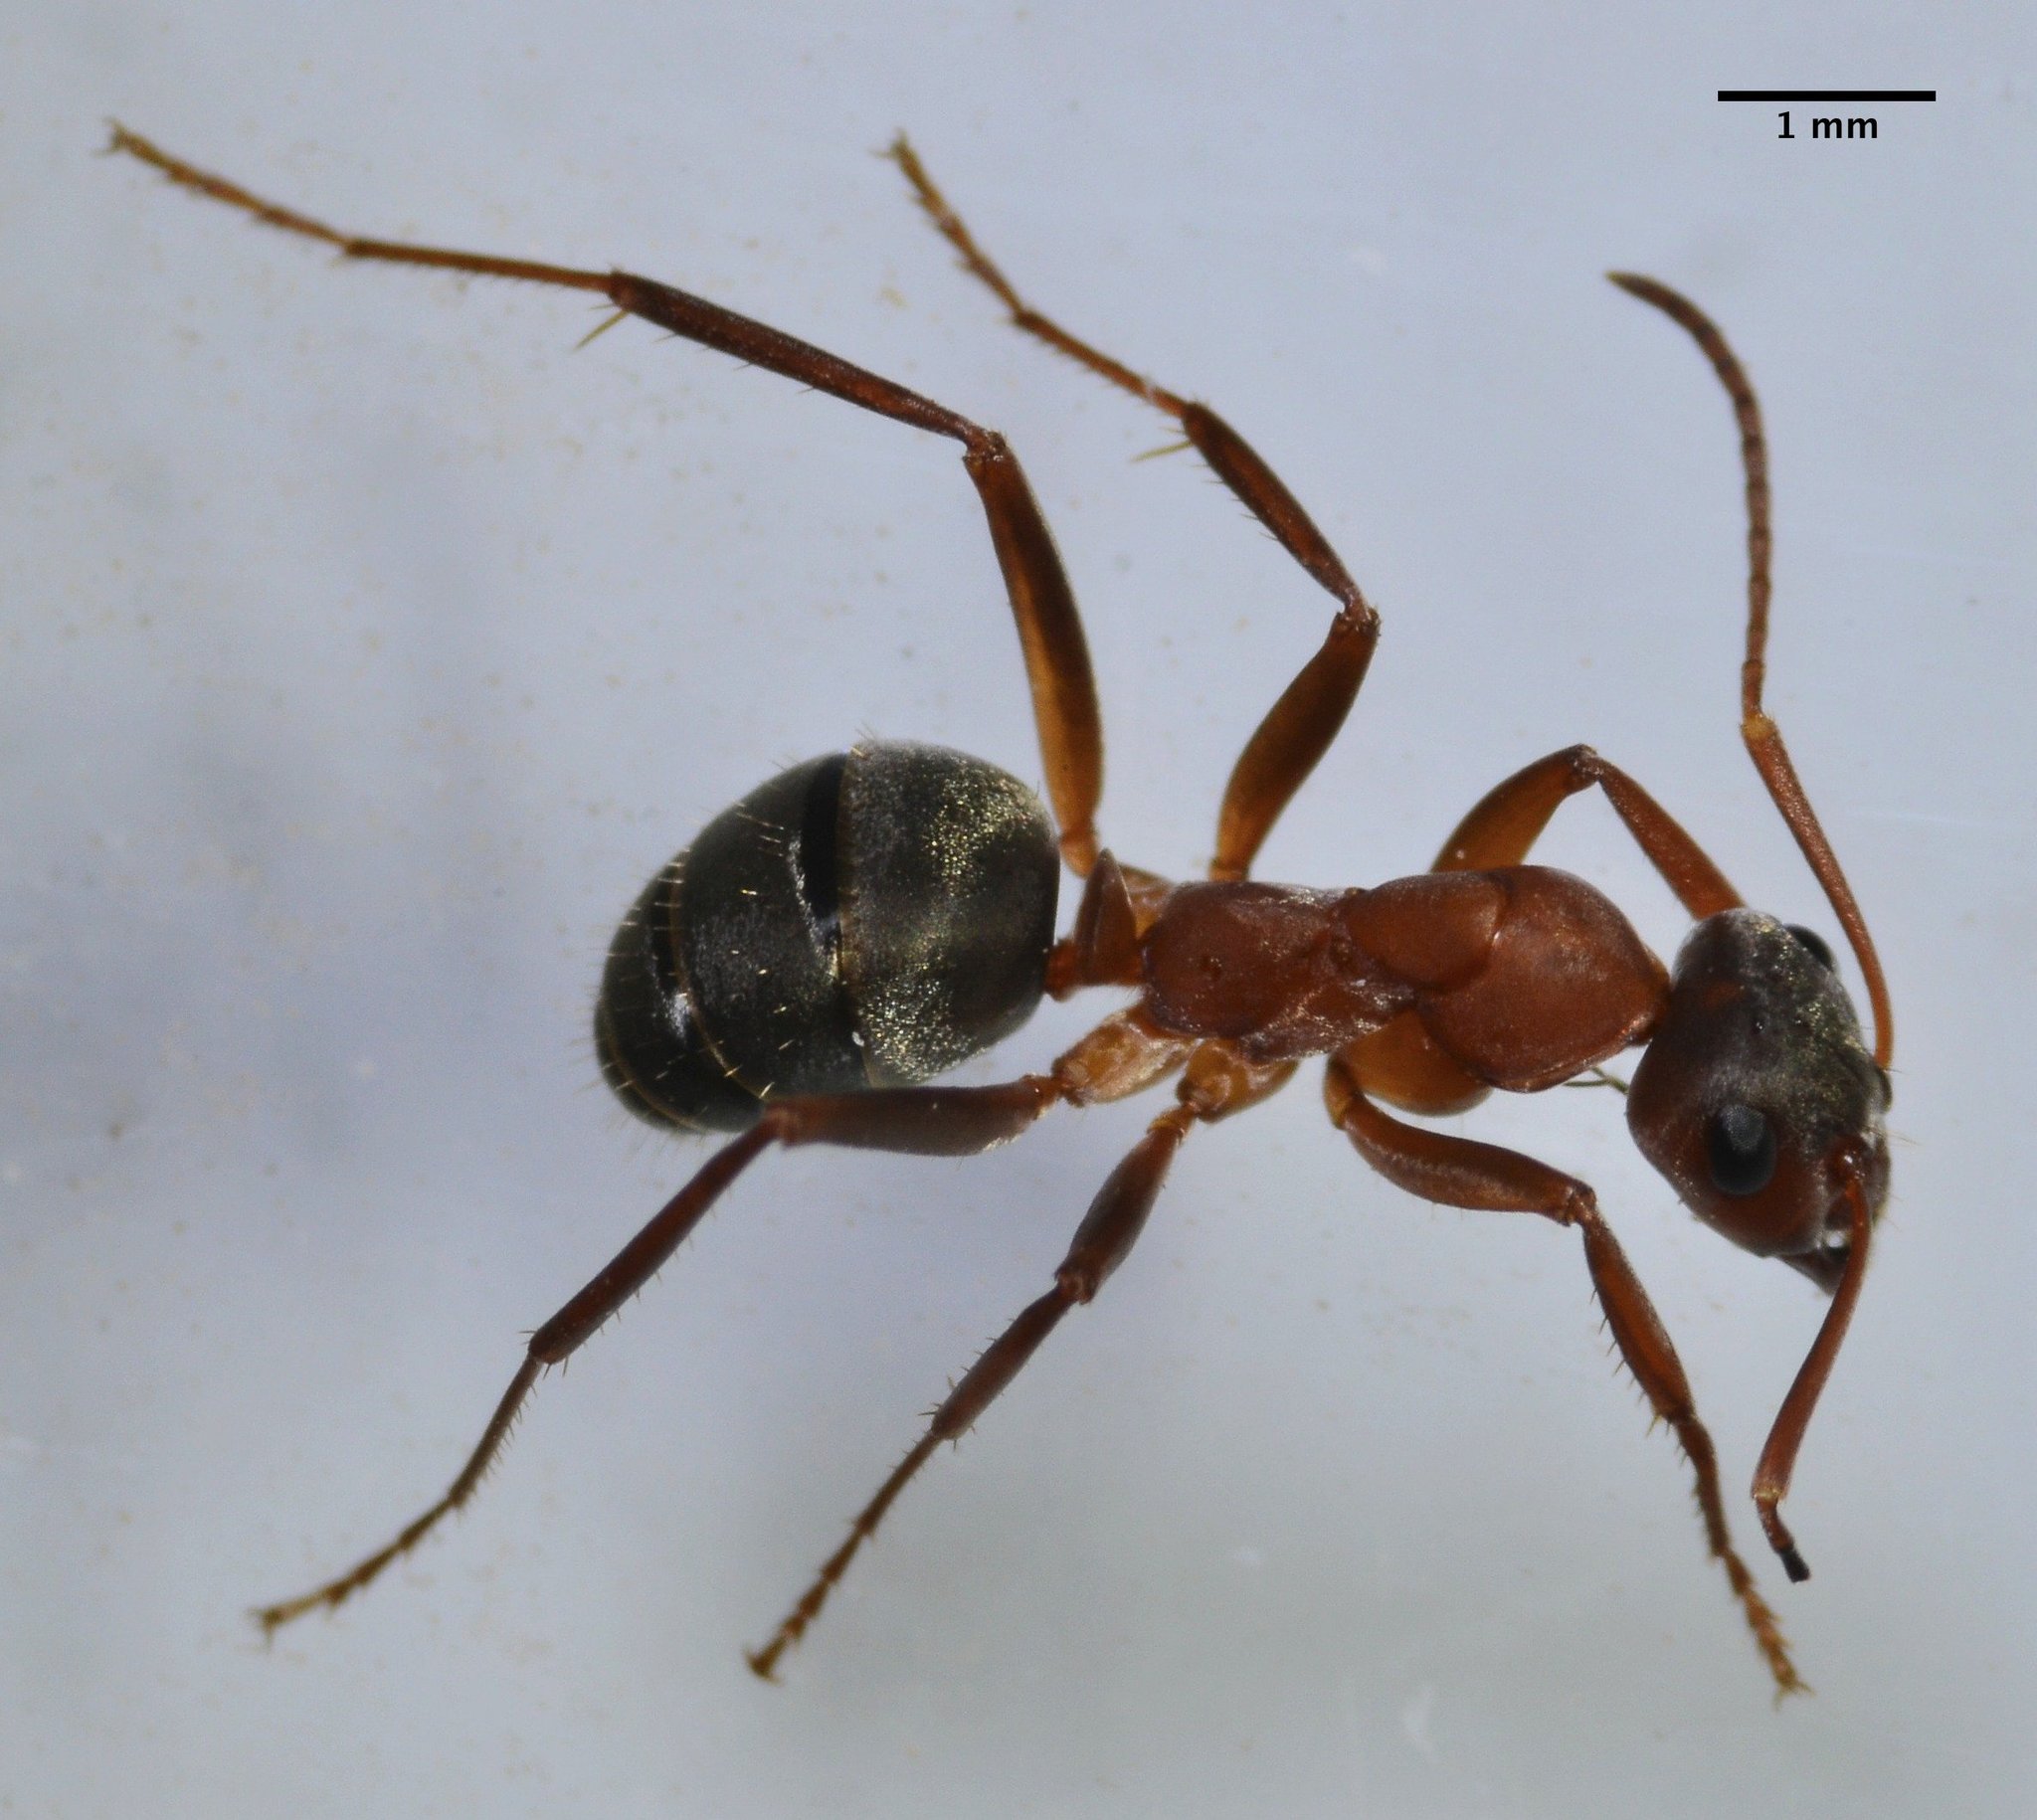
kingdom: Animalia
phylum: Arthropoda
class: Insecta
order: Hymenoptera
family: Formicidae
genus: Formica
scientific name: Formica moki
